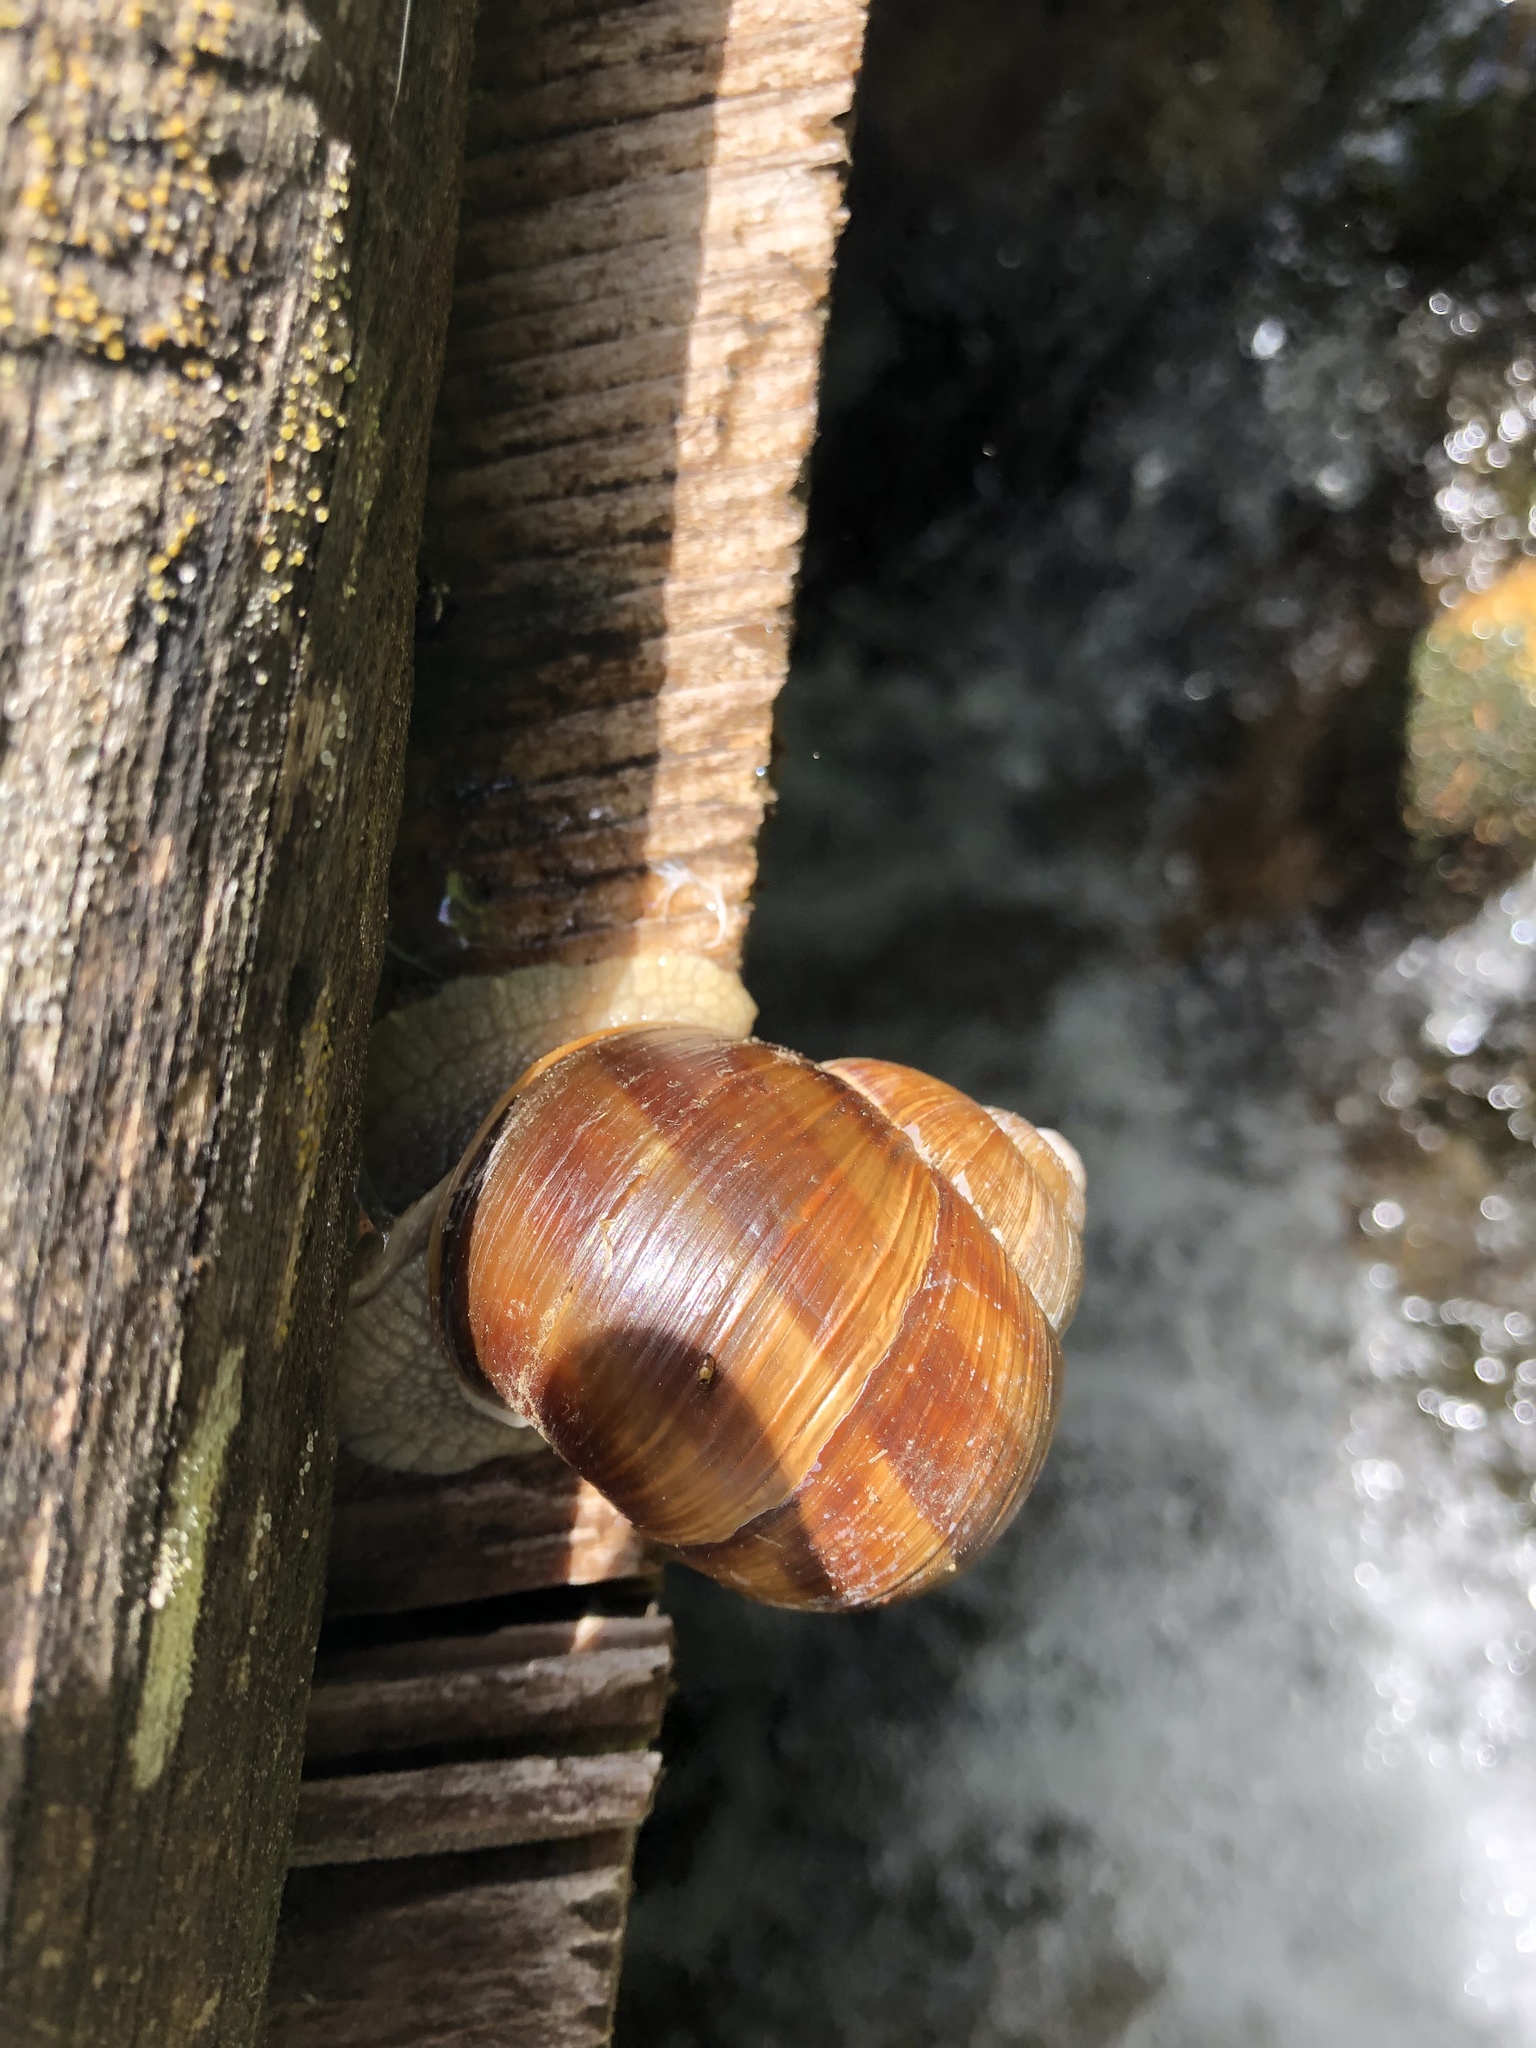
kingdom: Animalia
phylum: Mollusca
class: Gastropoda
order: Stylommatophora
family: Helicidae
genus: Helix
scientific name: Helix pomatia
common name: Roman snail
